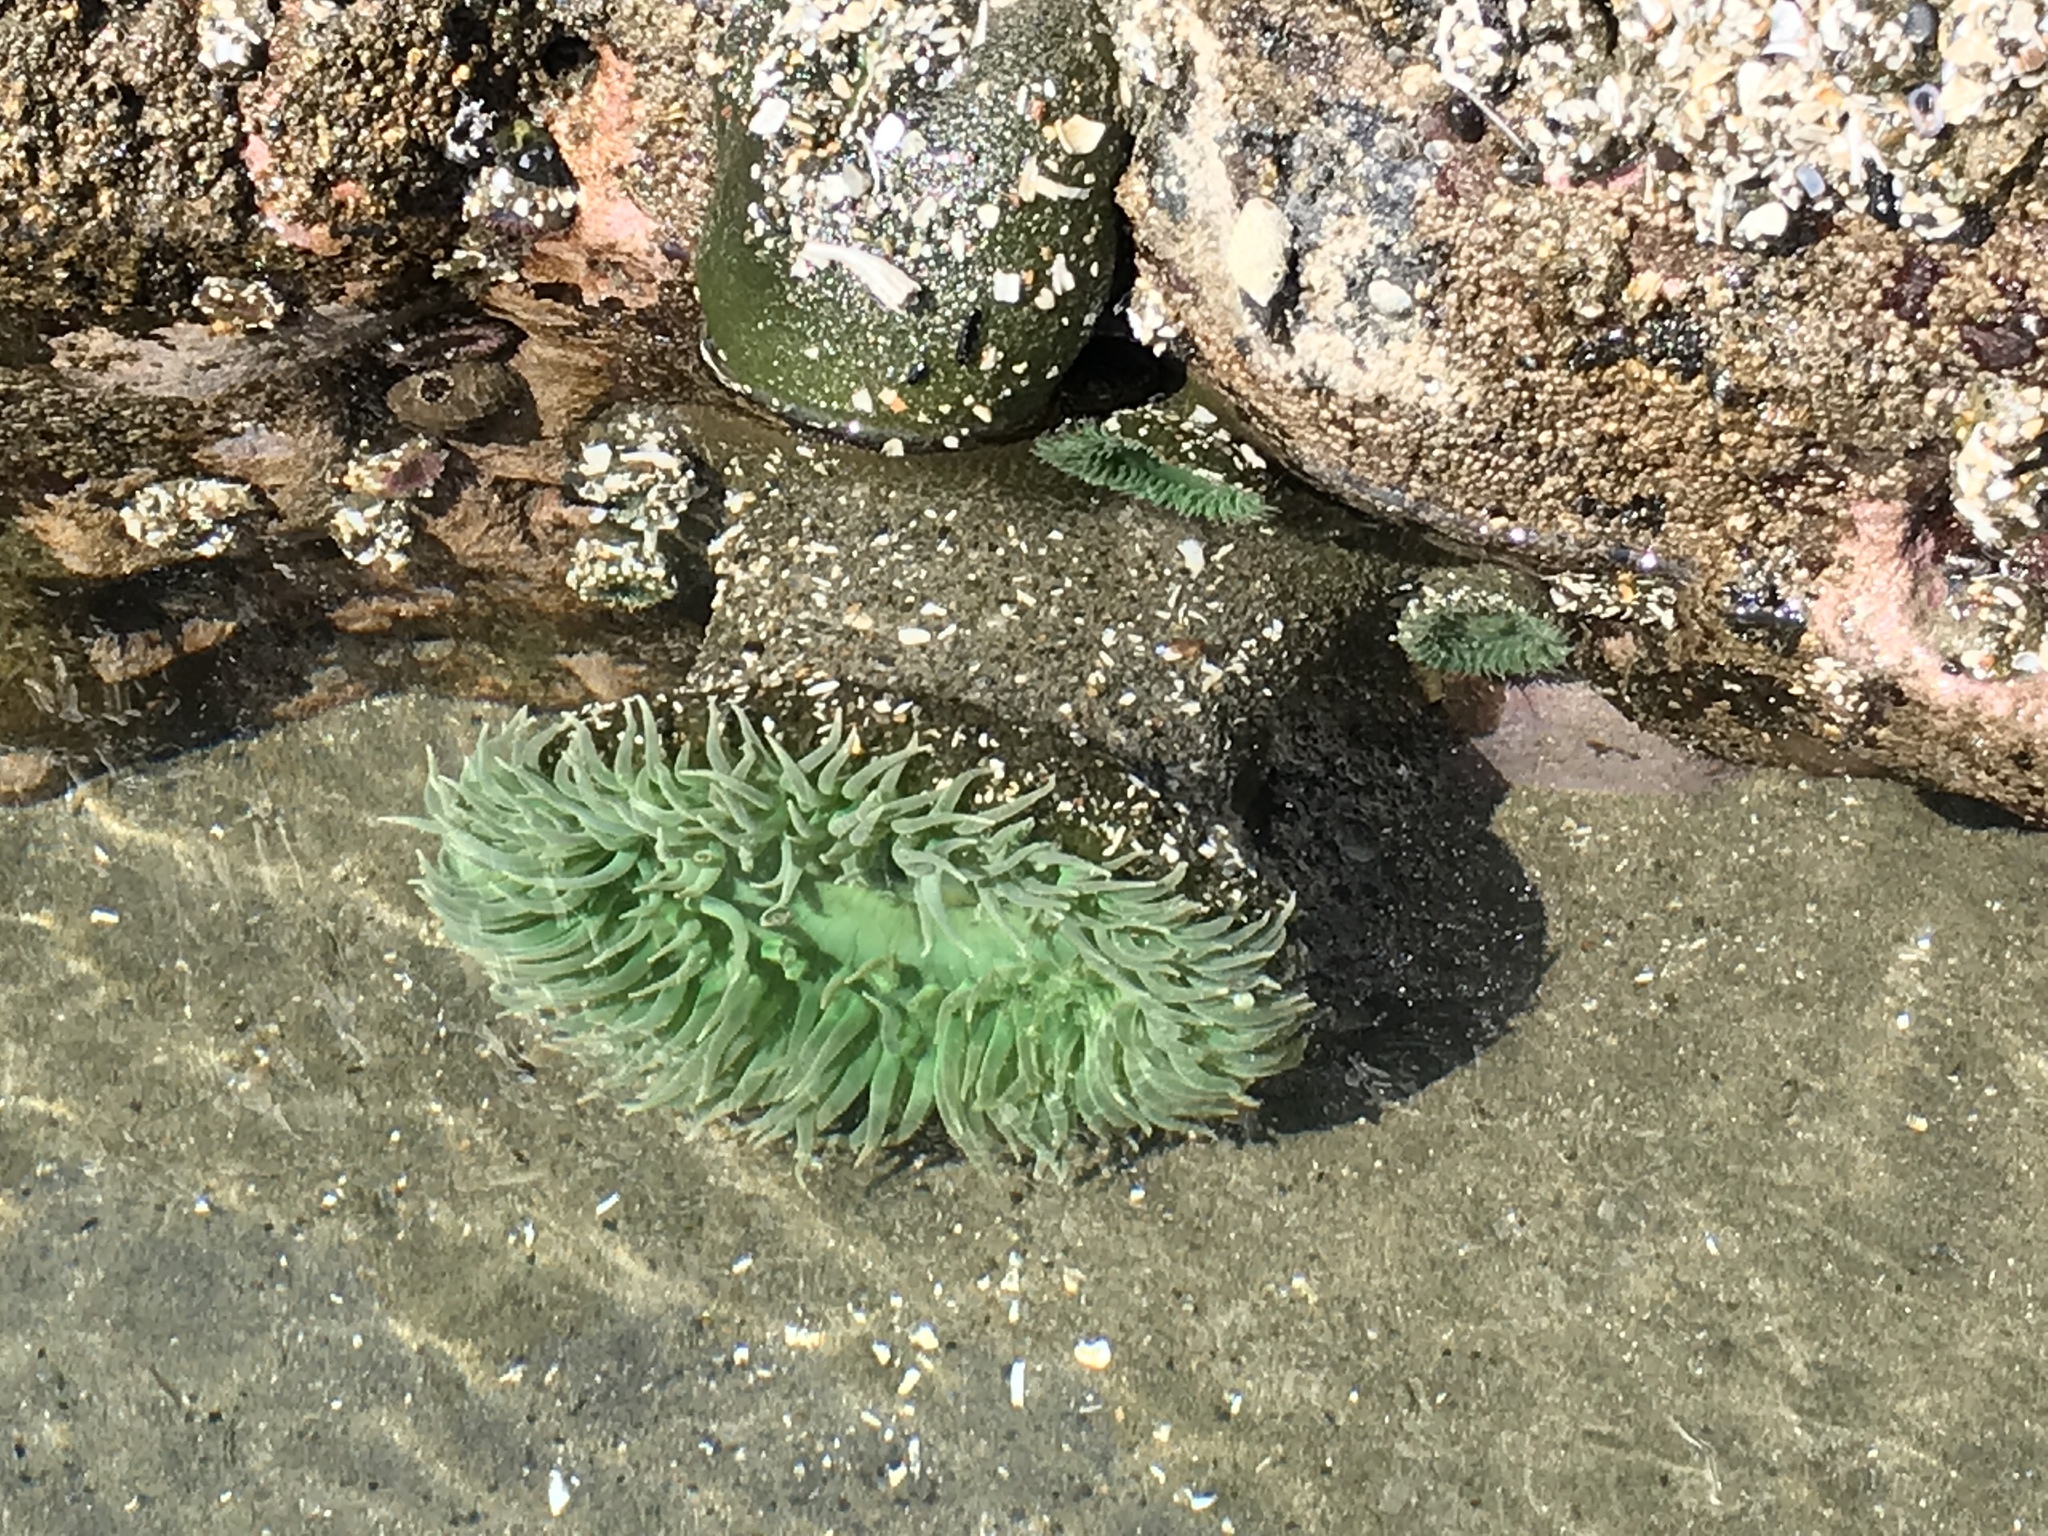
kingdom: Animalia
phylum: Cnidaria
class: Anthozoa
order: Actiniaria
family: Actiniidae
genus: Anthopleura
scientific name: Anthopleura xanthogrammica
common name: Giant green anemone
